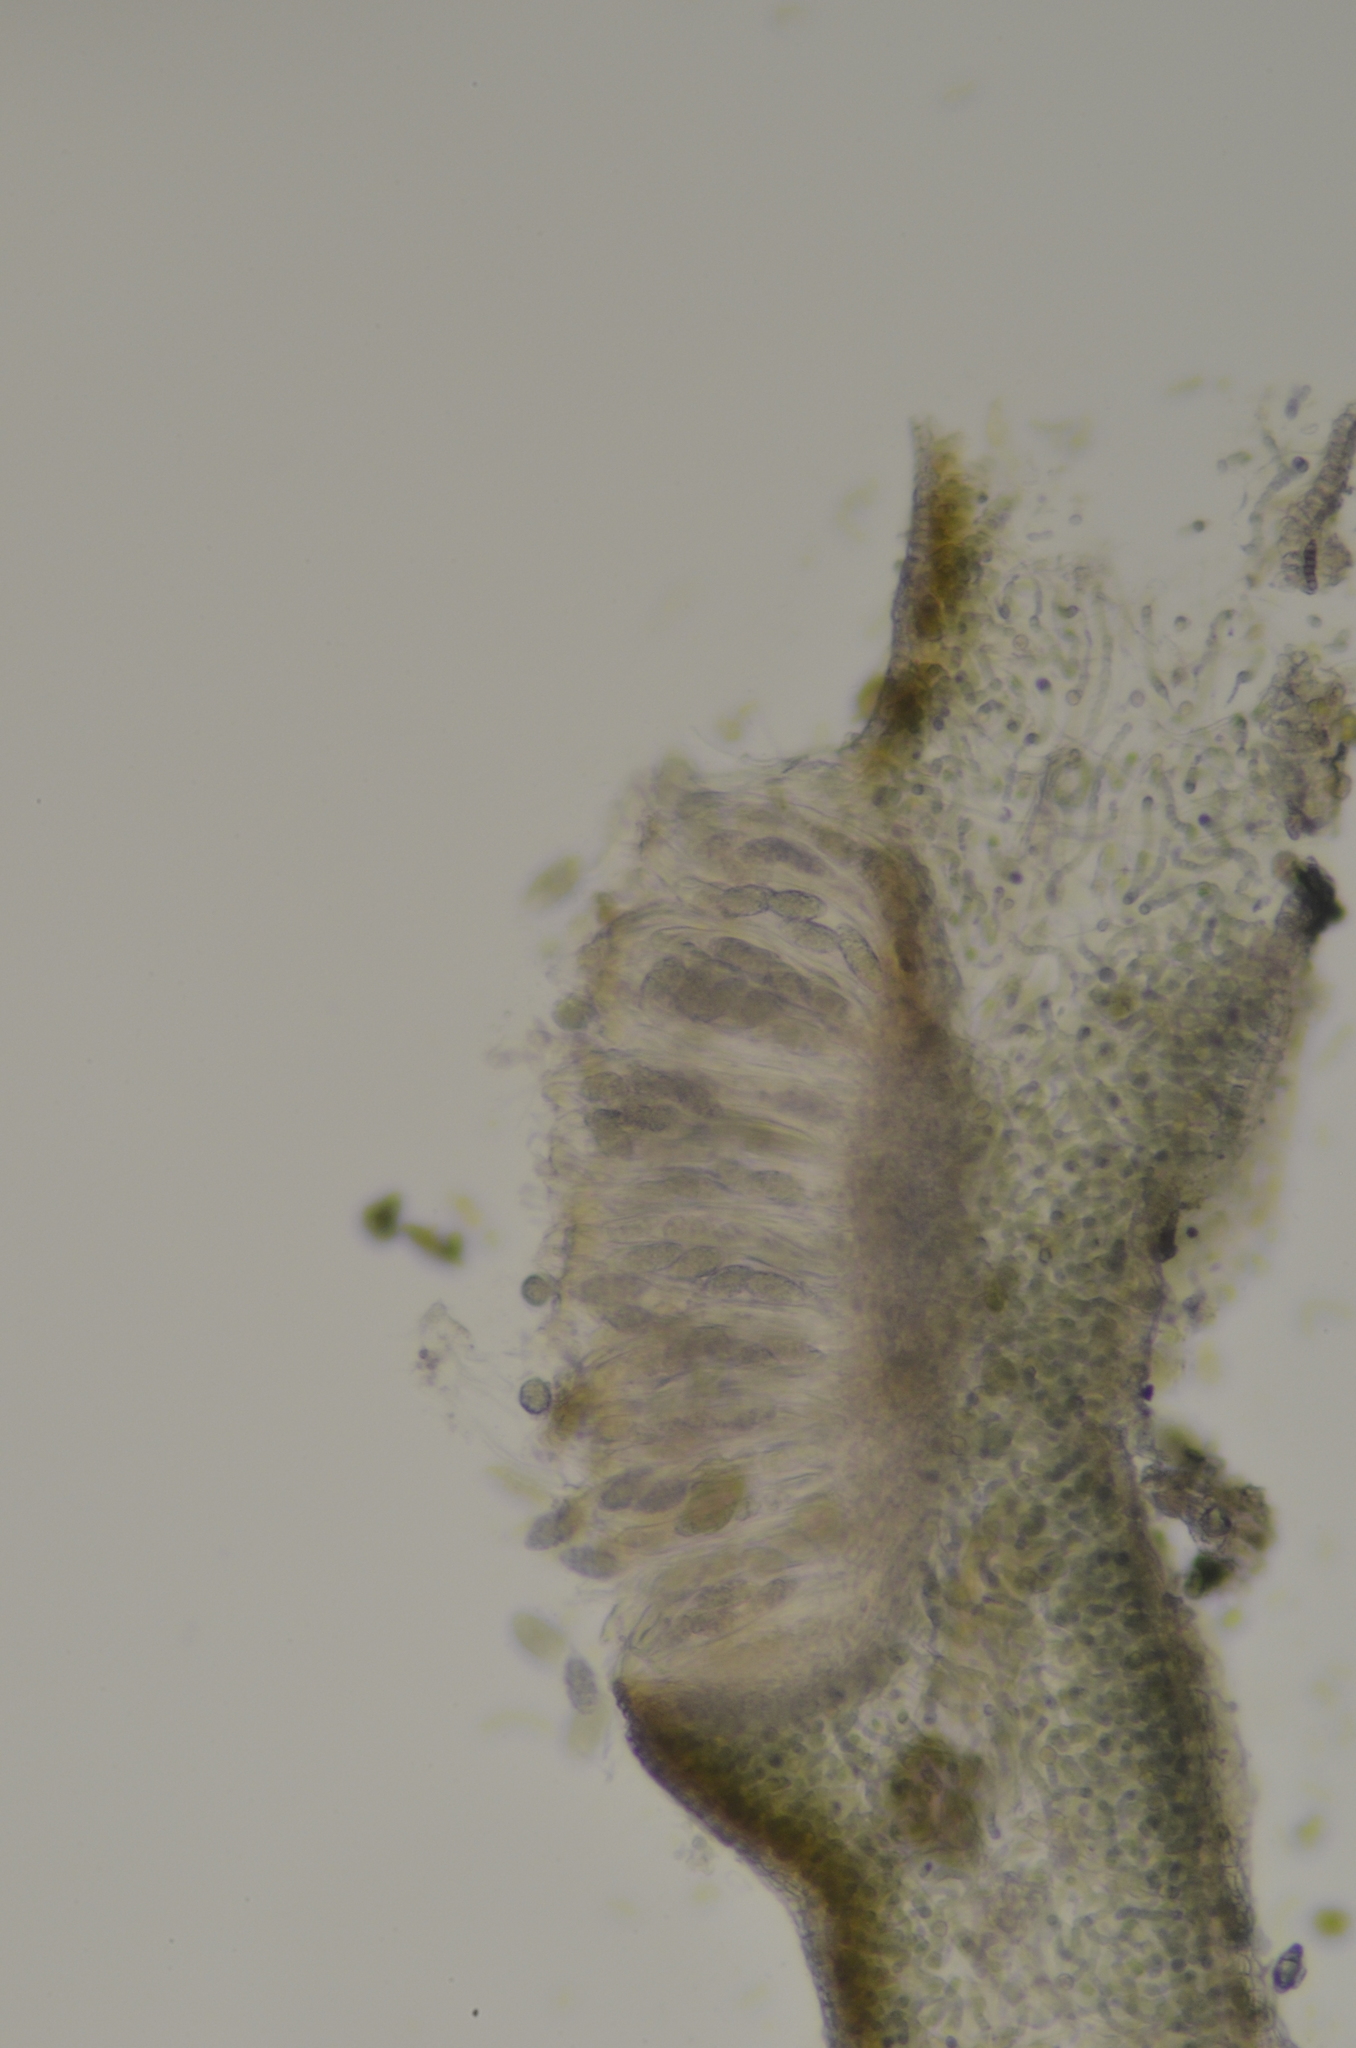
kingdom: Fungi
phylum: Ascomycota
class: Lecanoromycetes
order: Peltigerales
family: Collemataceae
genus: Scytinium
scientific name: Scytinium polycarpum
